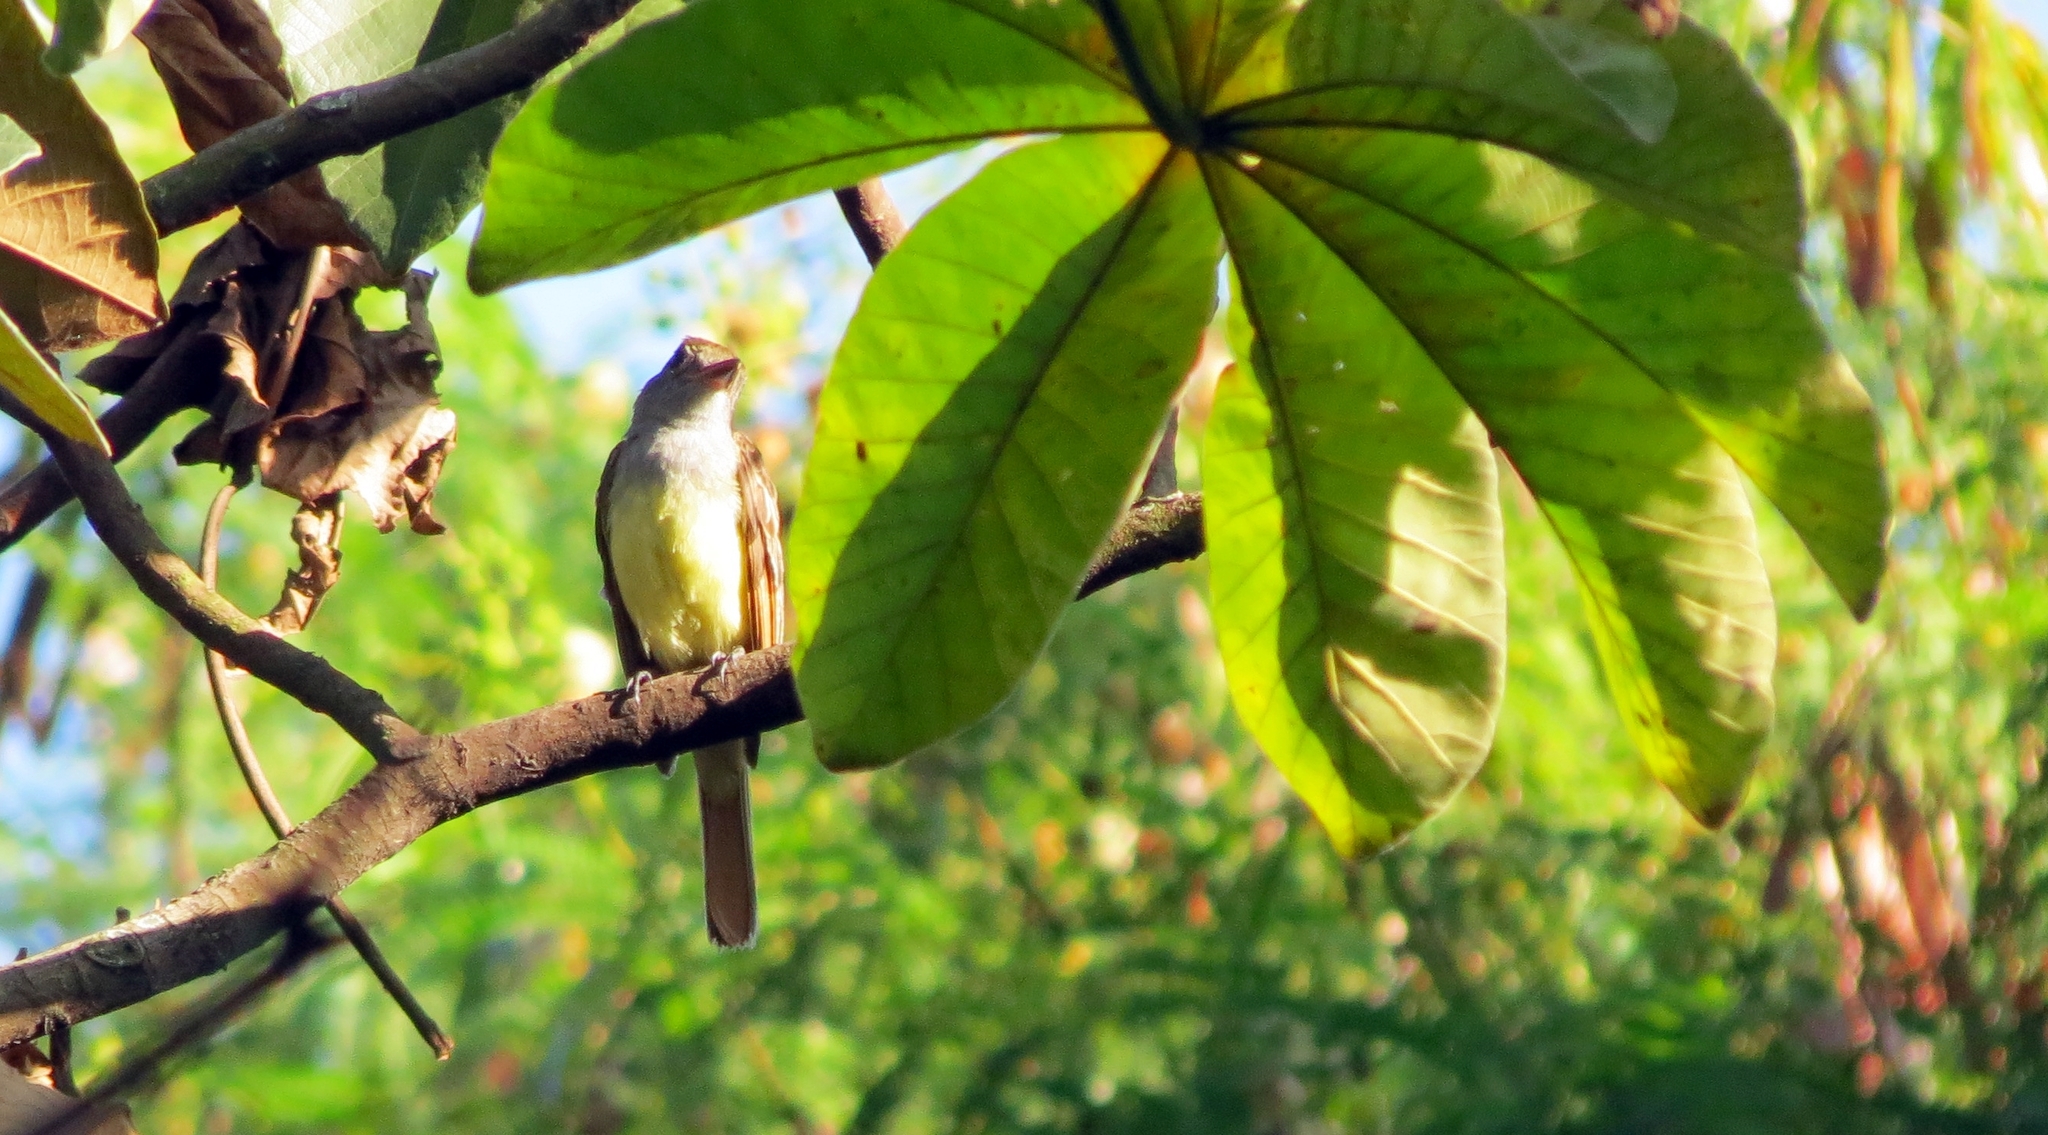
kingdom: Animalia
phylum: Chordata
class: Aves
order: Passeriformes
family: Tyrannidae
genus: Myiarchus
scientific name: Myiarchus crinitus
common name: Great crested flycatcher
